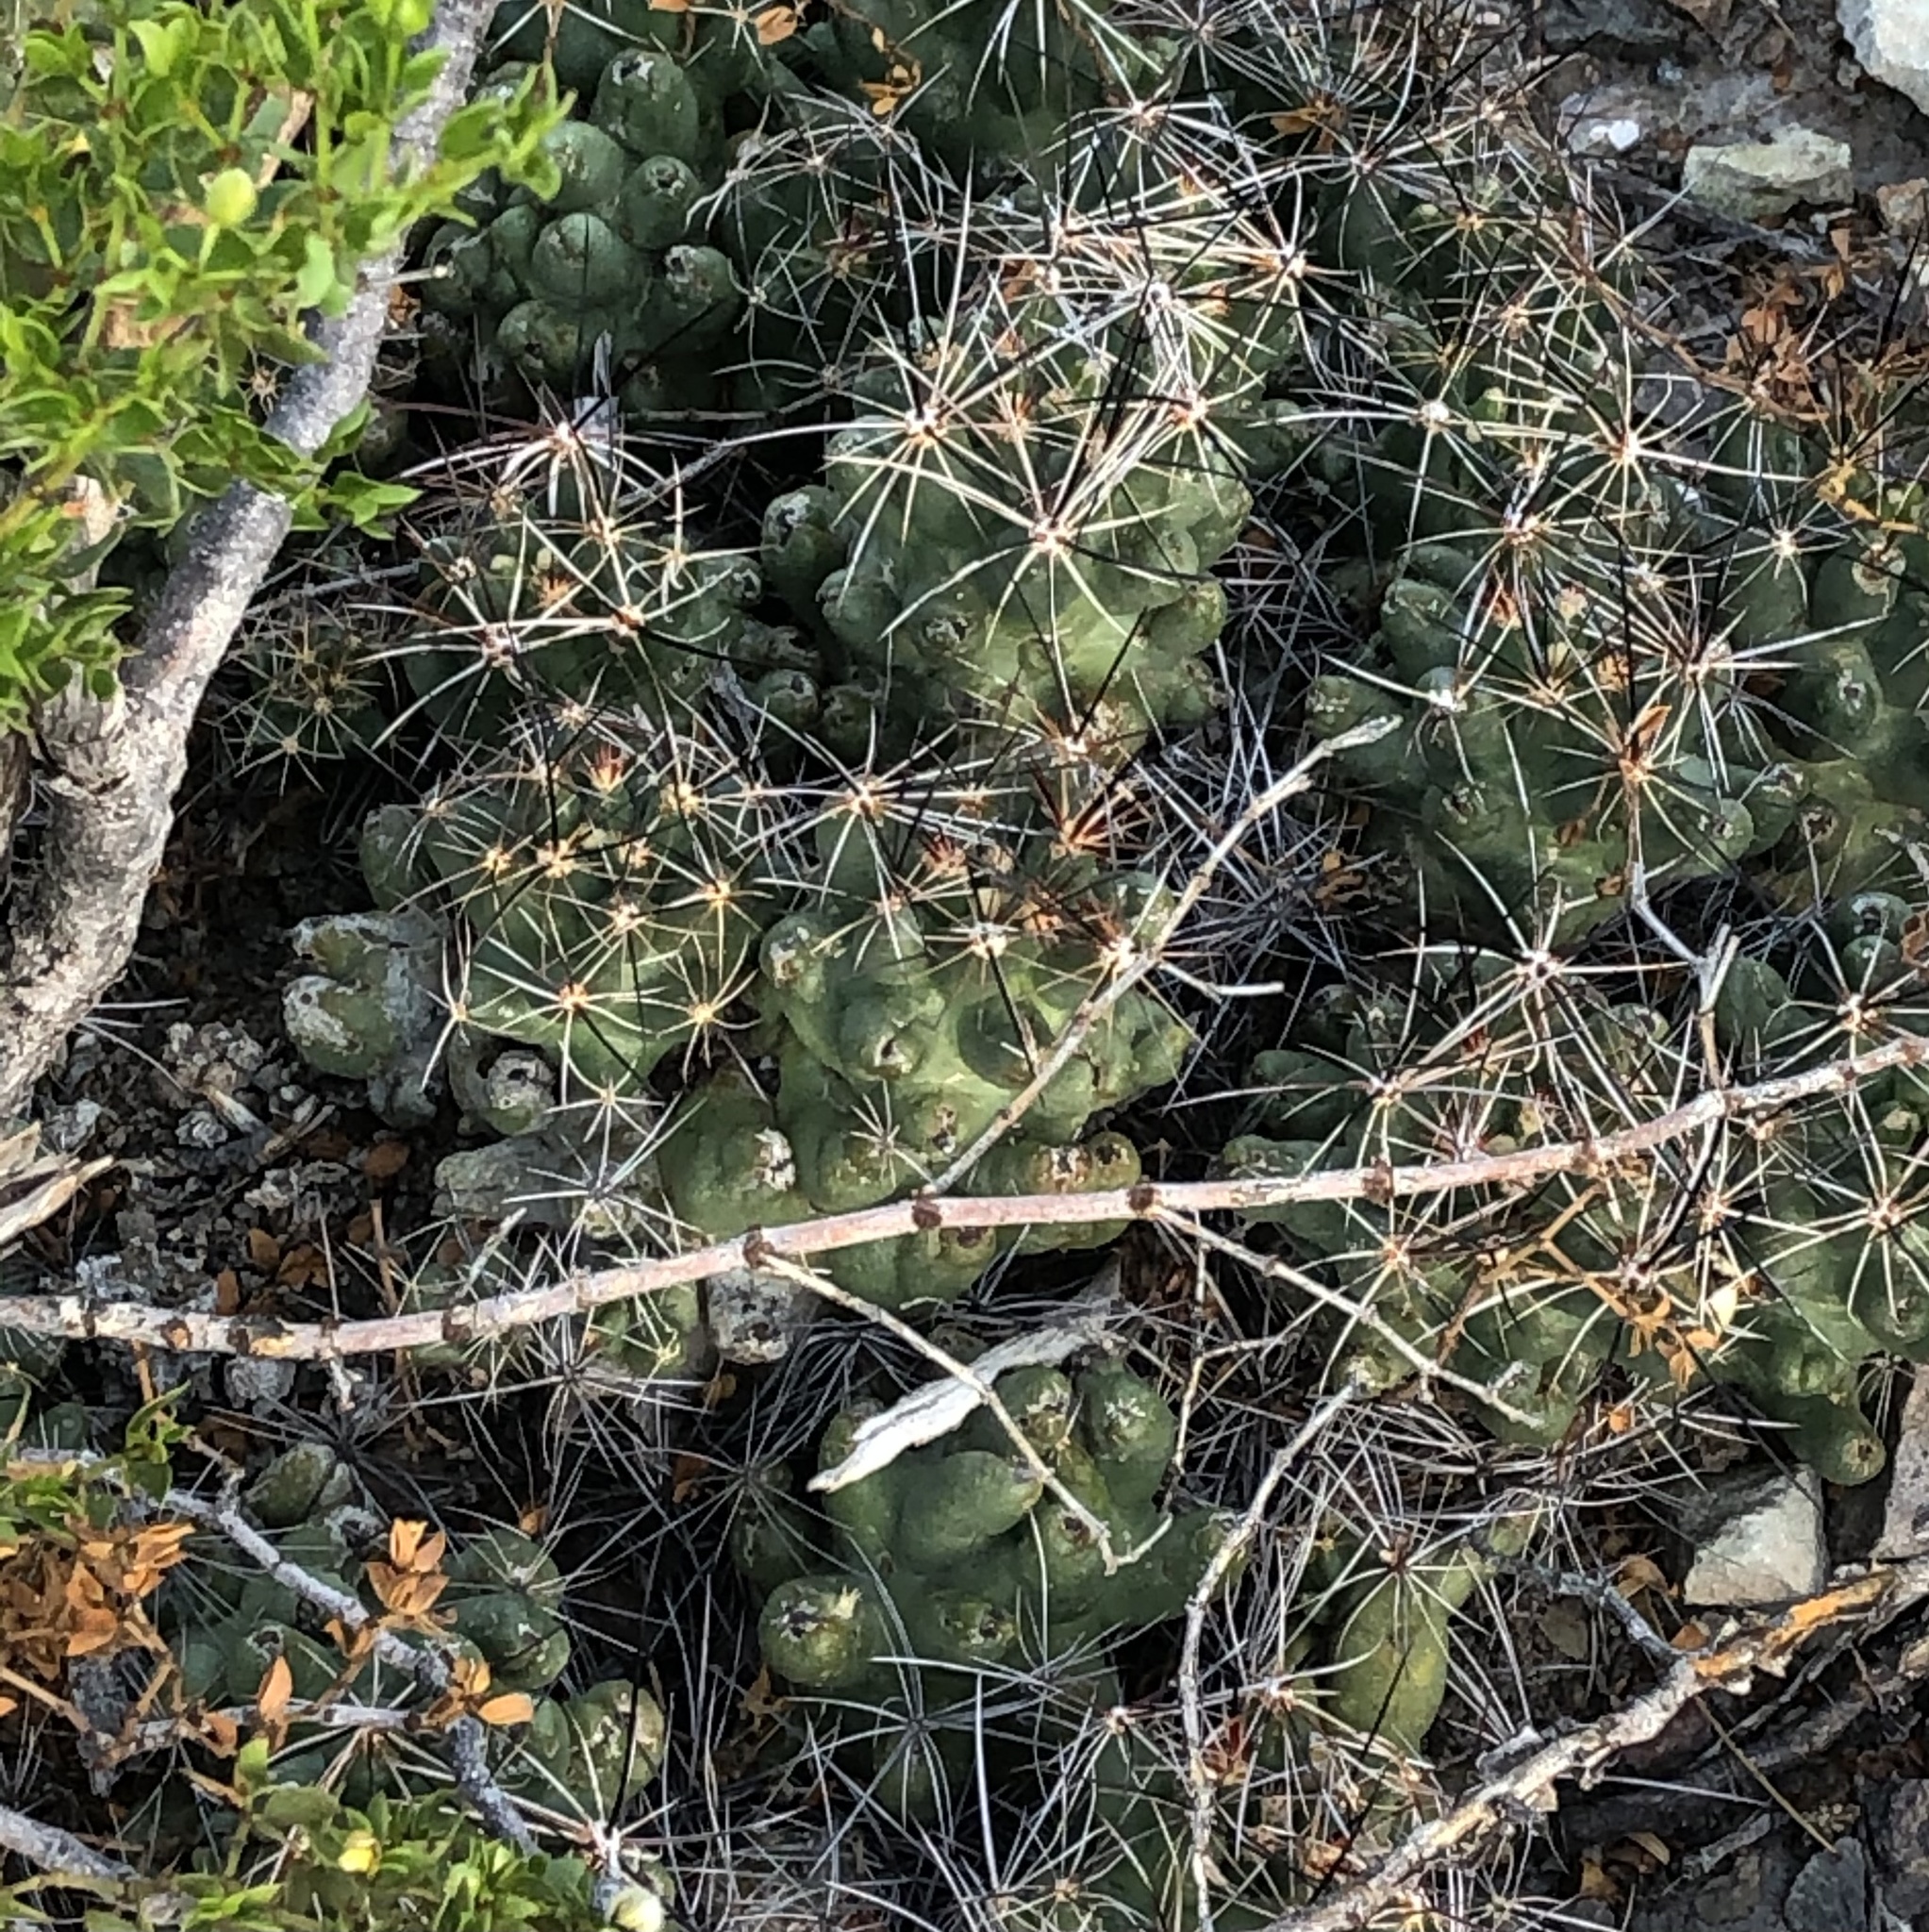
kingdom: Plantae
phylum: Tracheophyta
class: Magnoliopsida
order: Caryophyllales
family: Cactaceae
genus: Coryphantha
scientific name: Coryphantha macromeris
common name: Nipple beehive cactus
